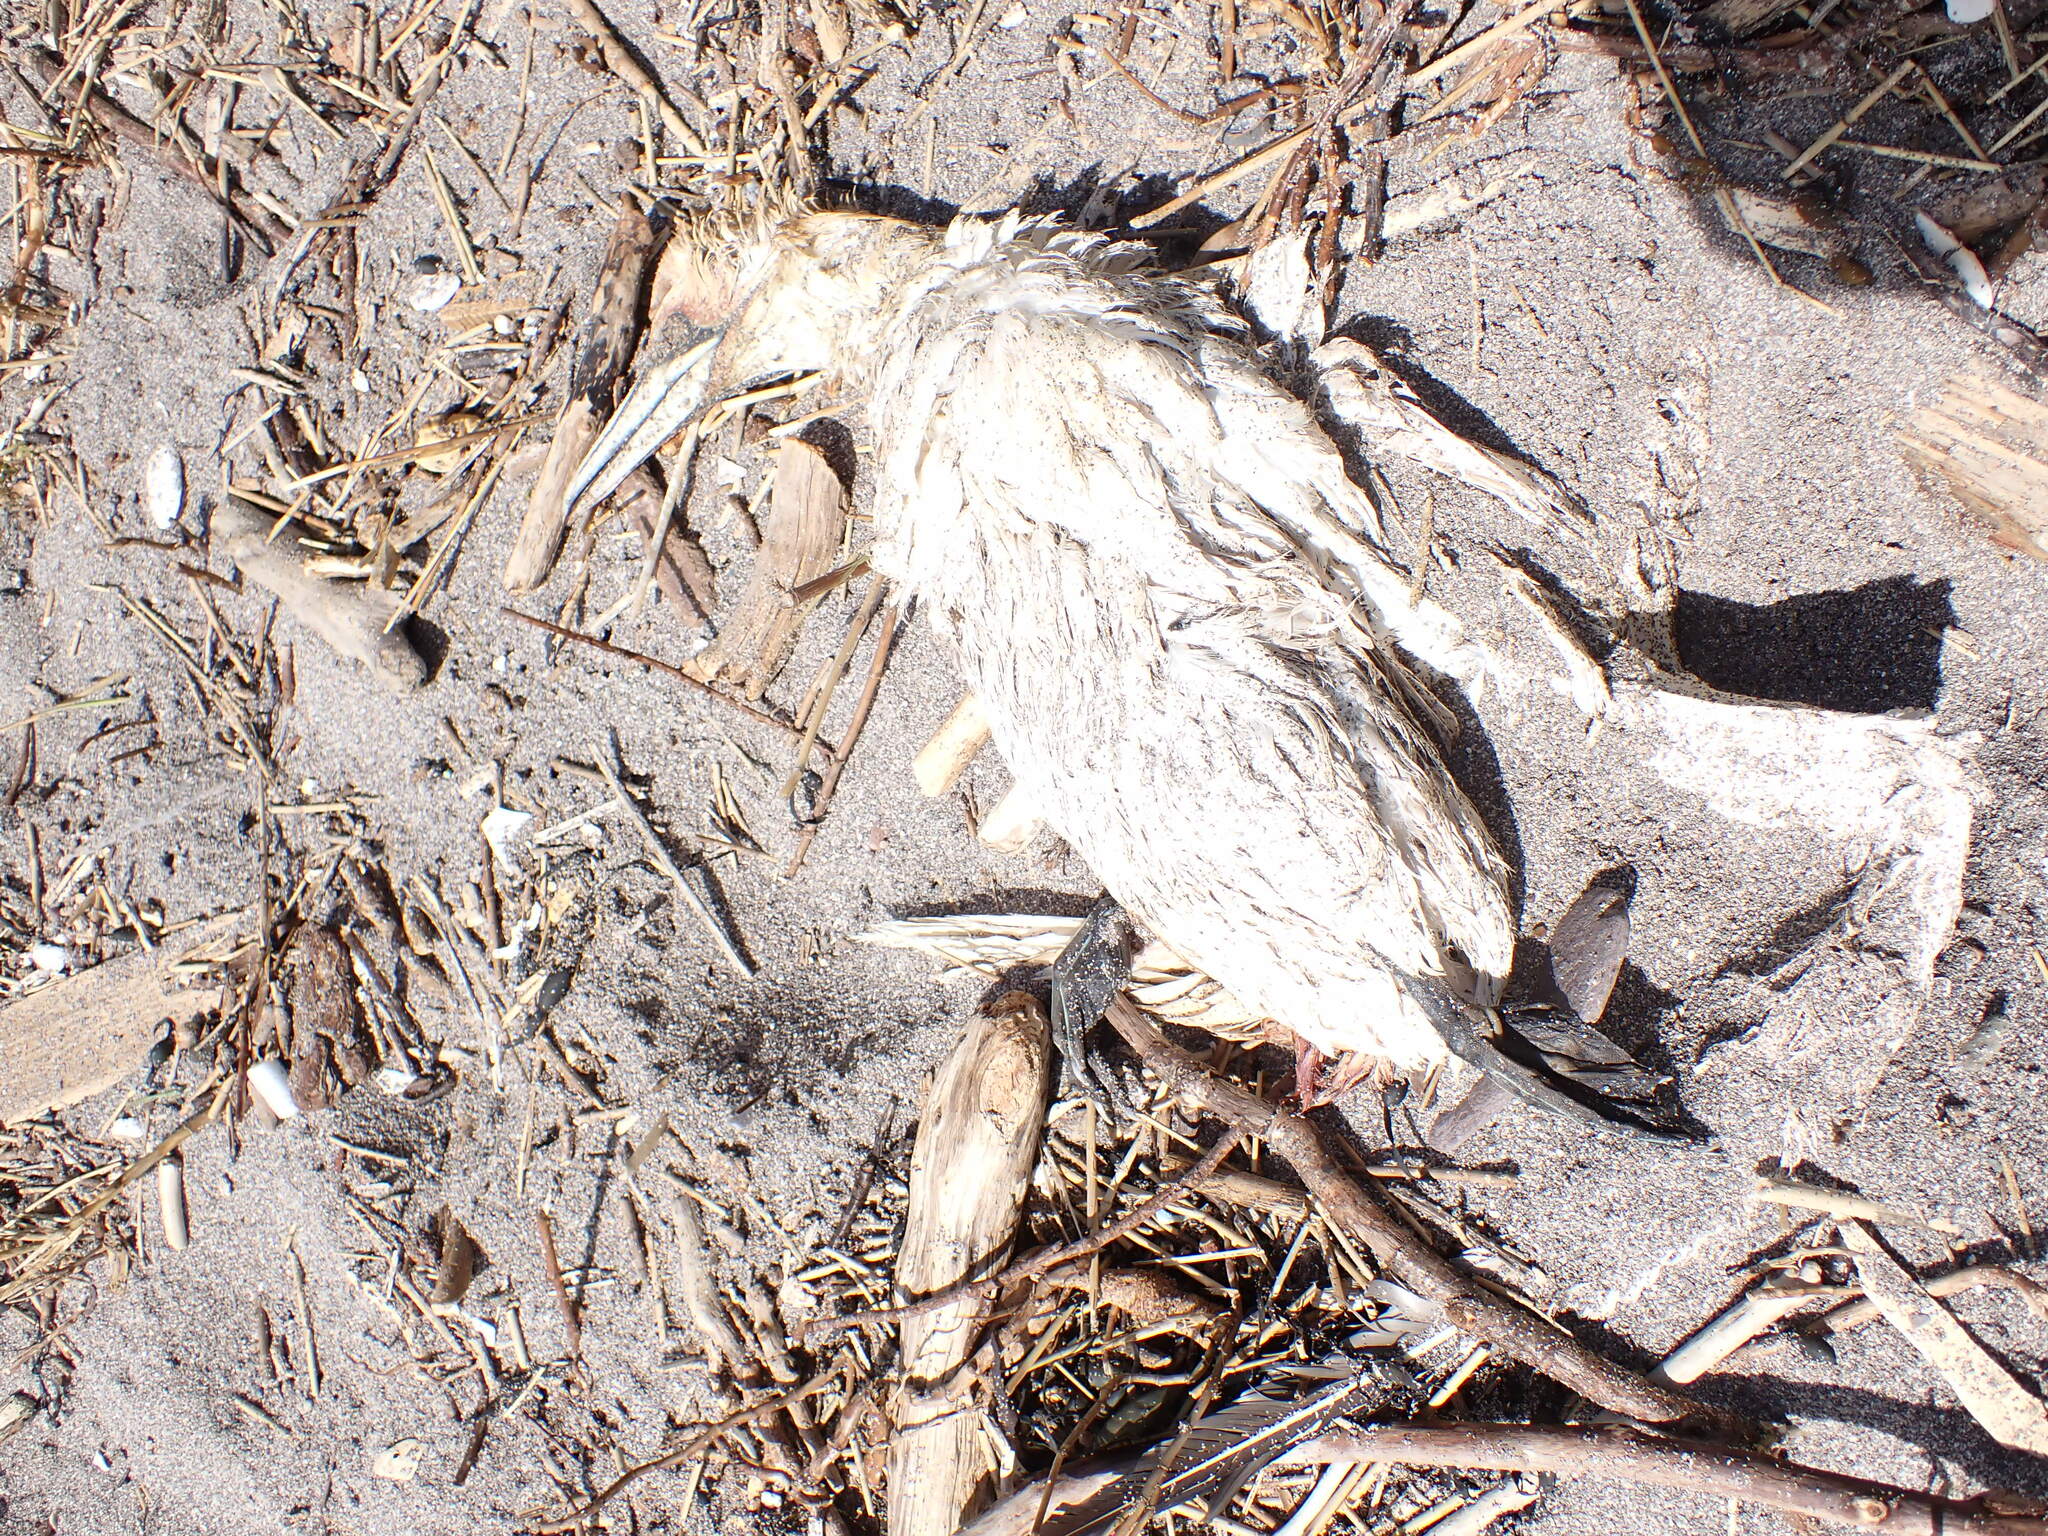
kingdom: Animalia
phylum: Chordata
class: Aves
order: Suliformes
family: Sulidae
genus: Morus
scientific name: Morus bassanus
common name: Northern gannet
